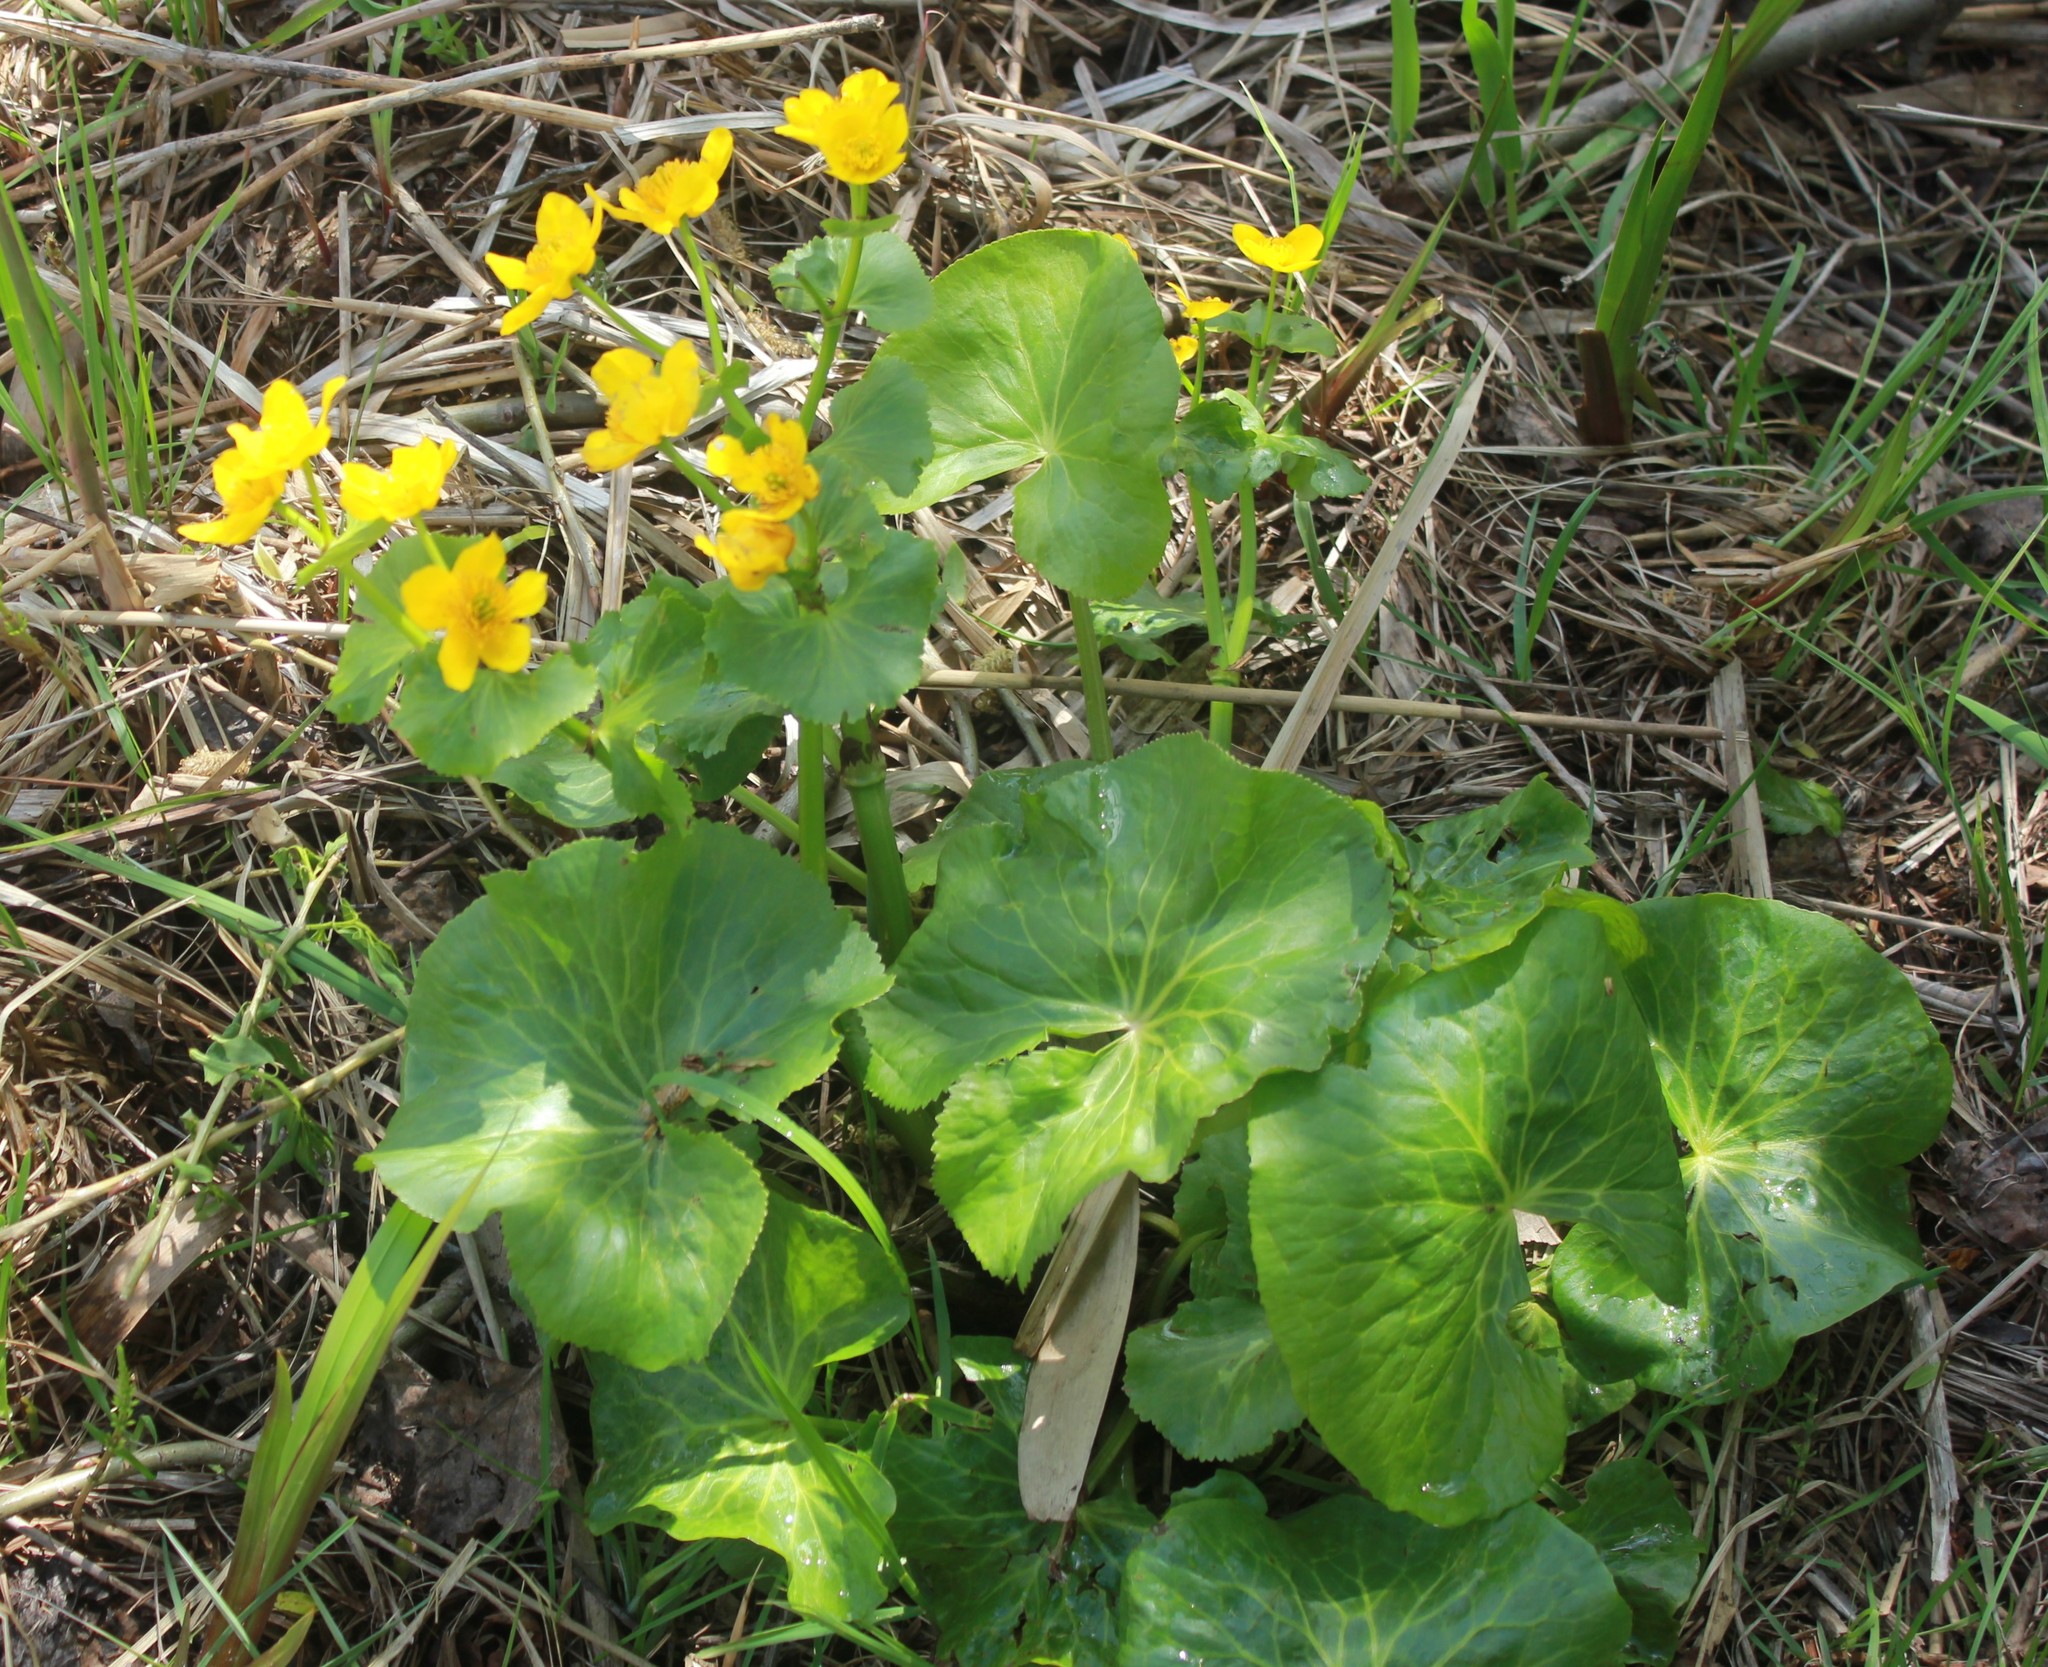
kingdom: Plantae
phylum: Tracheophyta
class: Magnoliopsida
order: Ranunculales
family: Ranunculaceae
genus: Caltha
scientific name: Caltha palustris
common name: Marsh marigold
